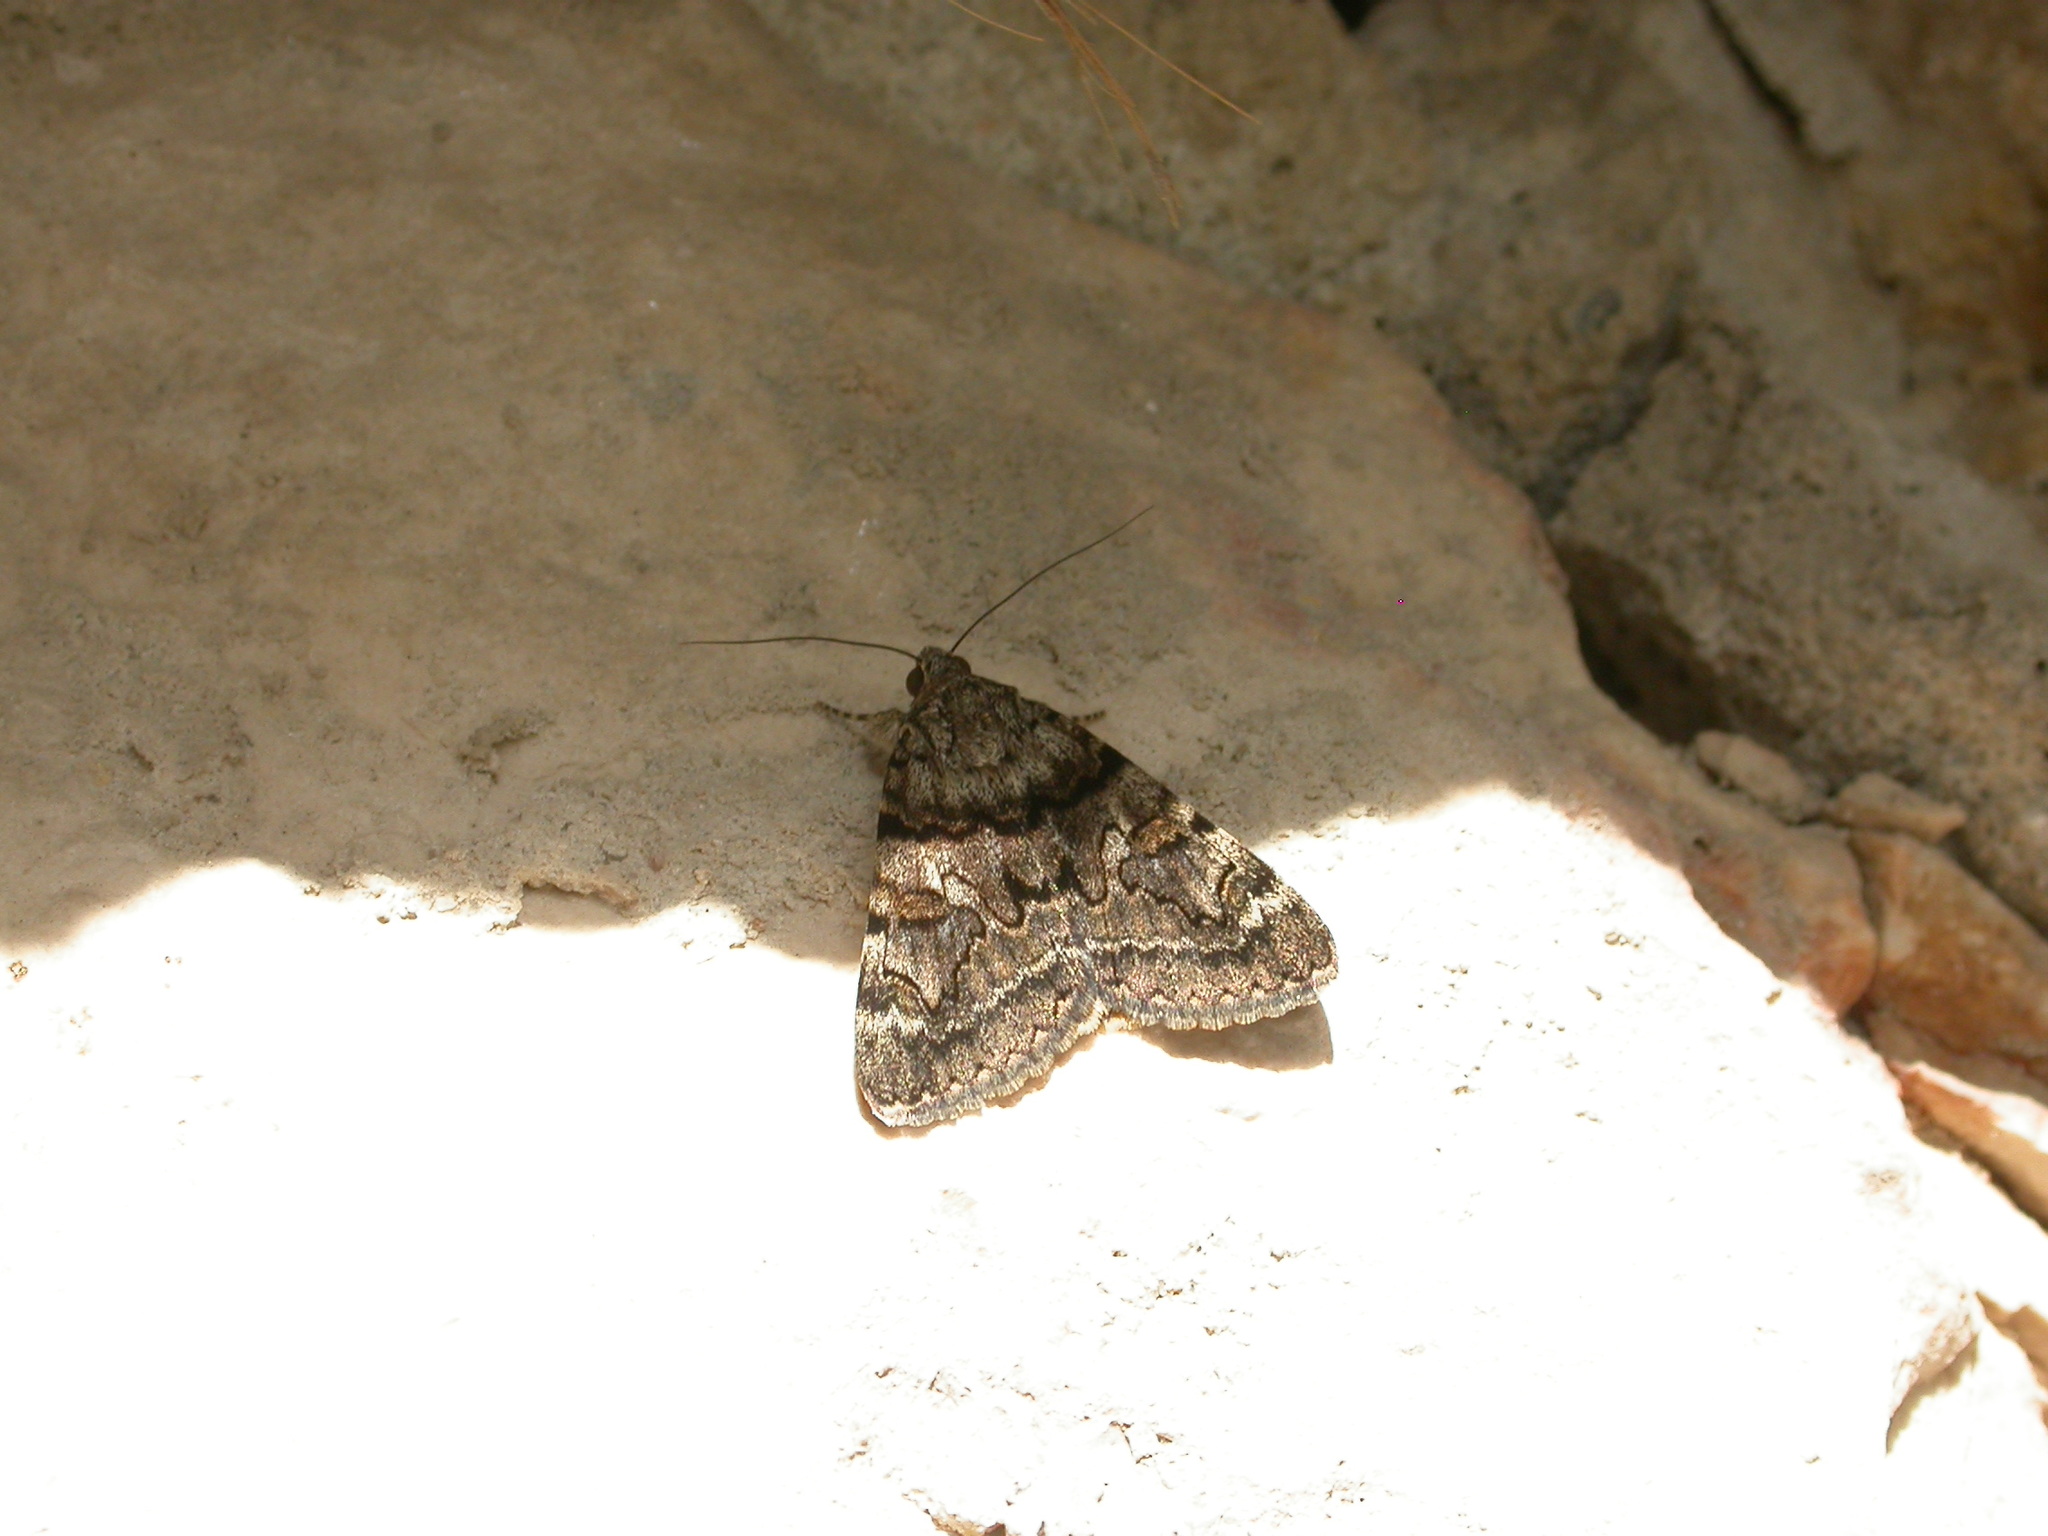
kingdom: Animalia
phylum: Arthropoda
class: Insecta
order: Lepidoptera
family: Erebidae
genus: Catocala
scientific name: Catocala nymphagoga
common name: Oak yellow underwing
